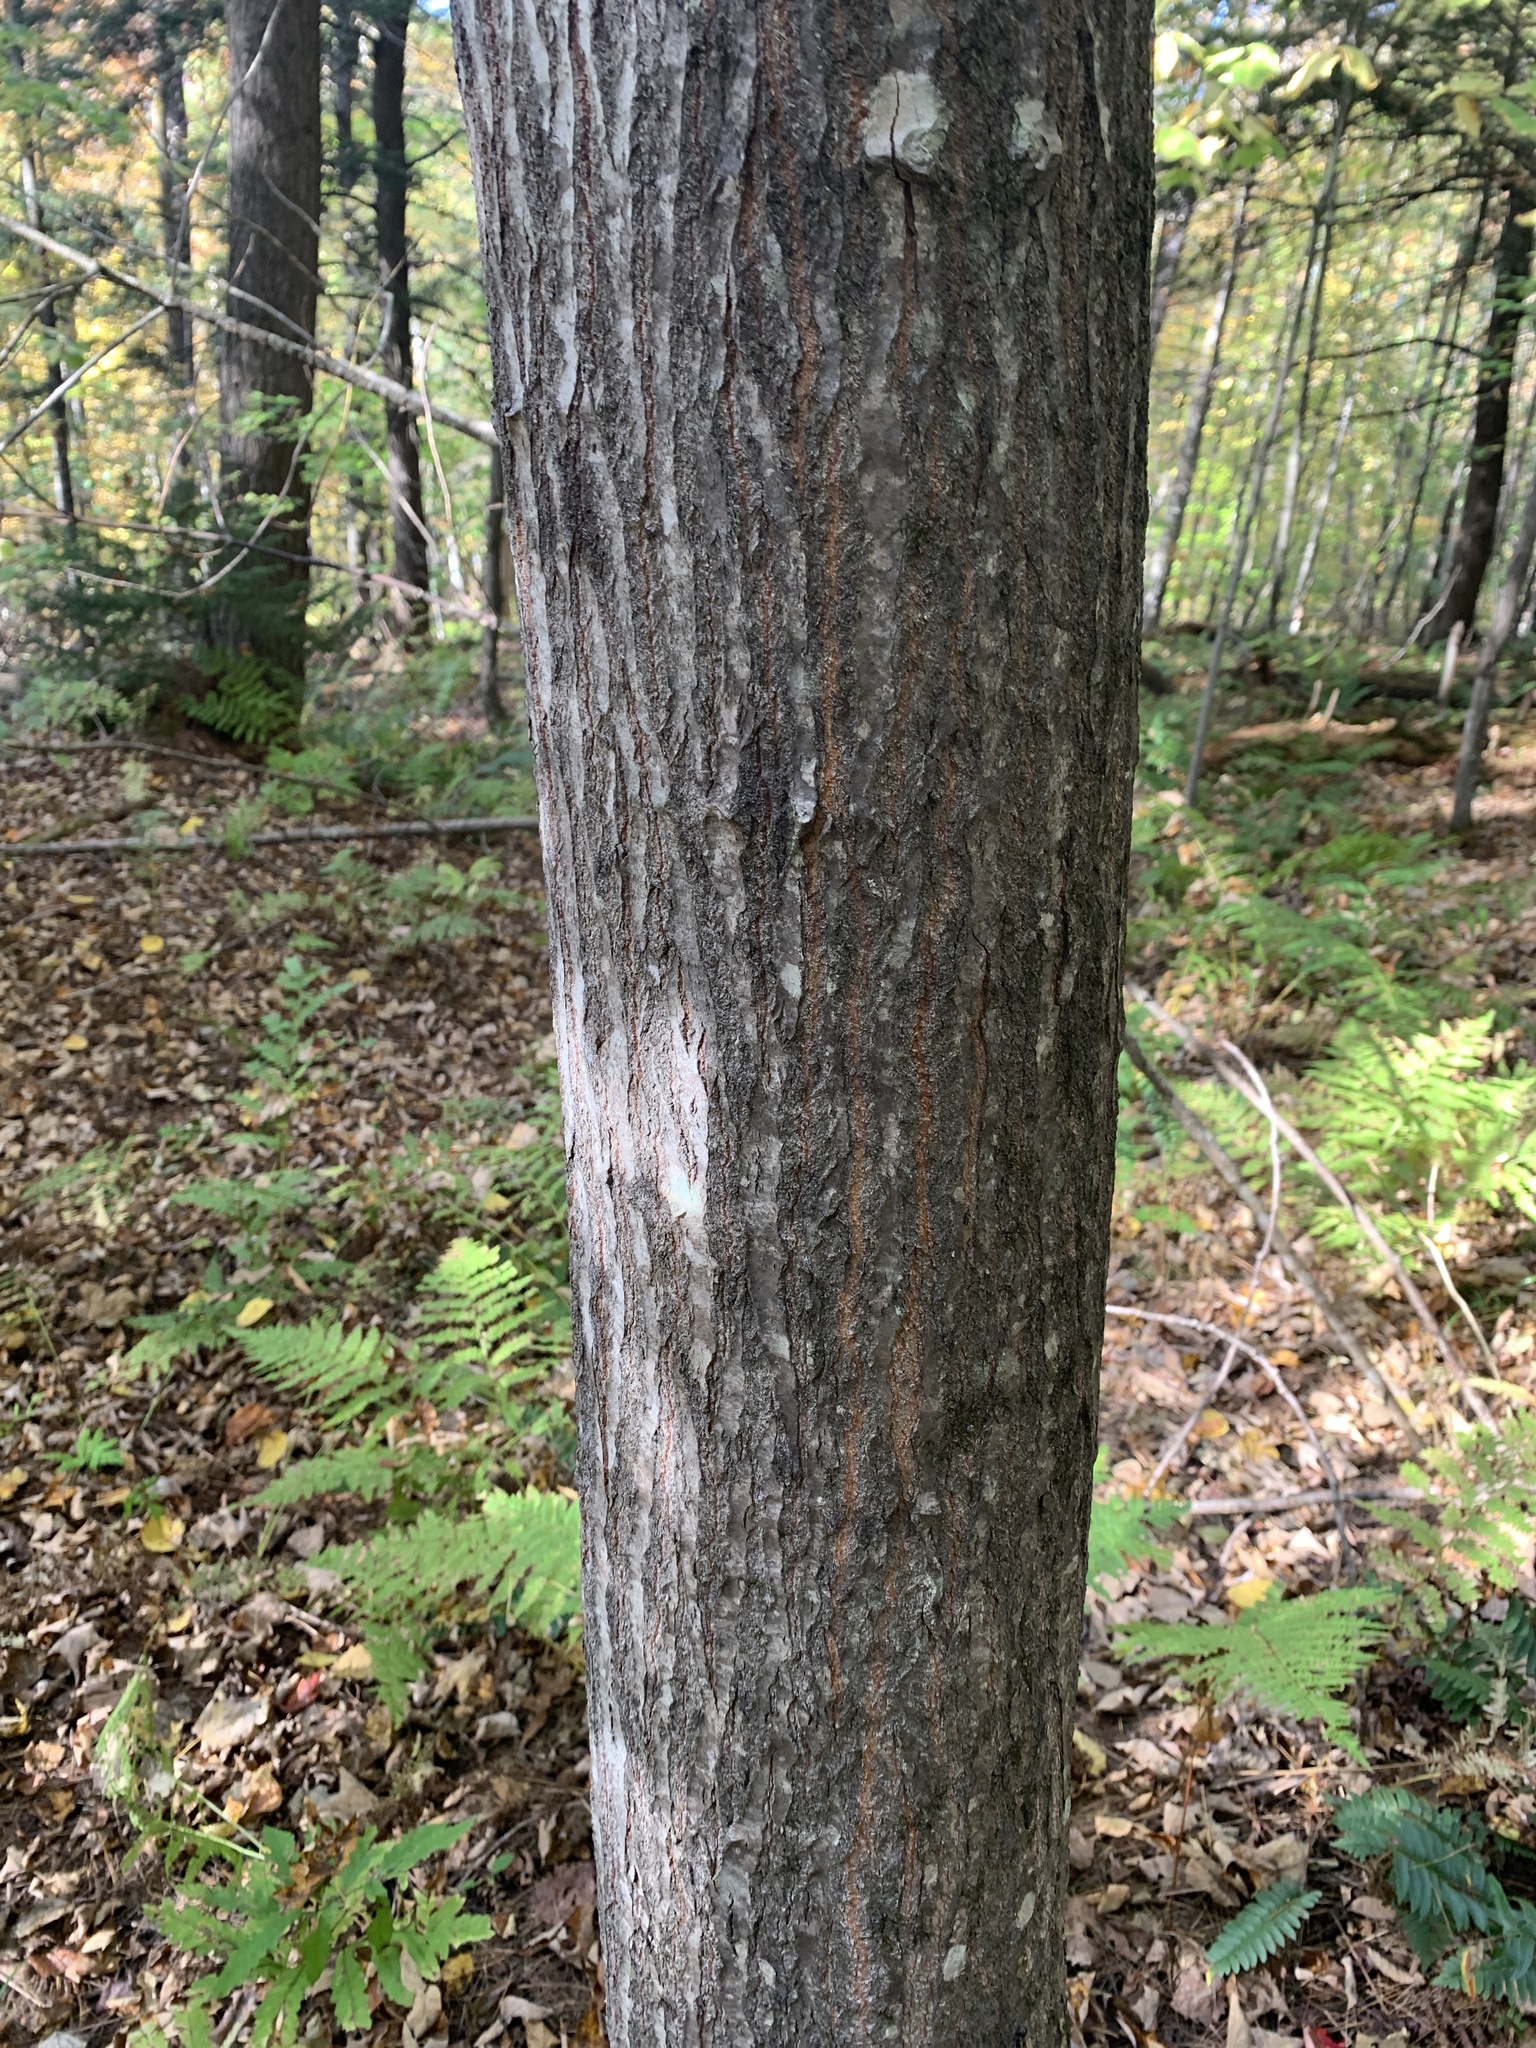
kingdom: Plantae
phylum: Tracheophyta
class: Magnoliopsida
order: Malpighiales
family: Salicaceae
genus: Populus
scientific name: Populus grandidentata
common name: Bigtooth aspen
